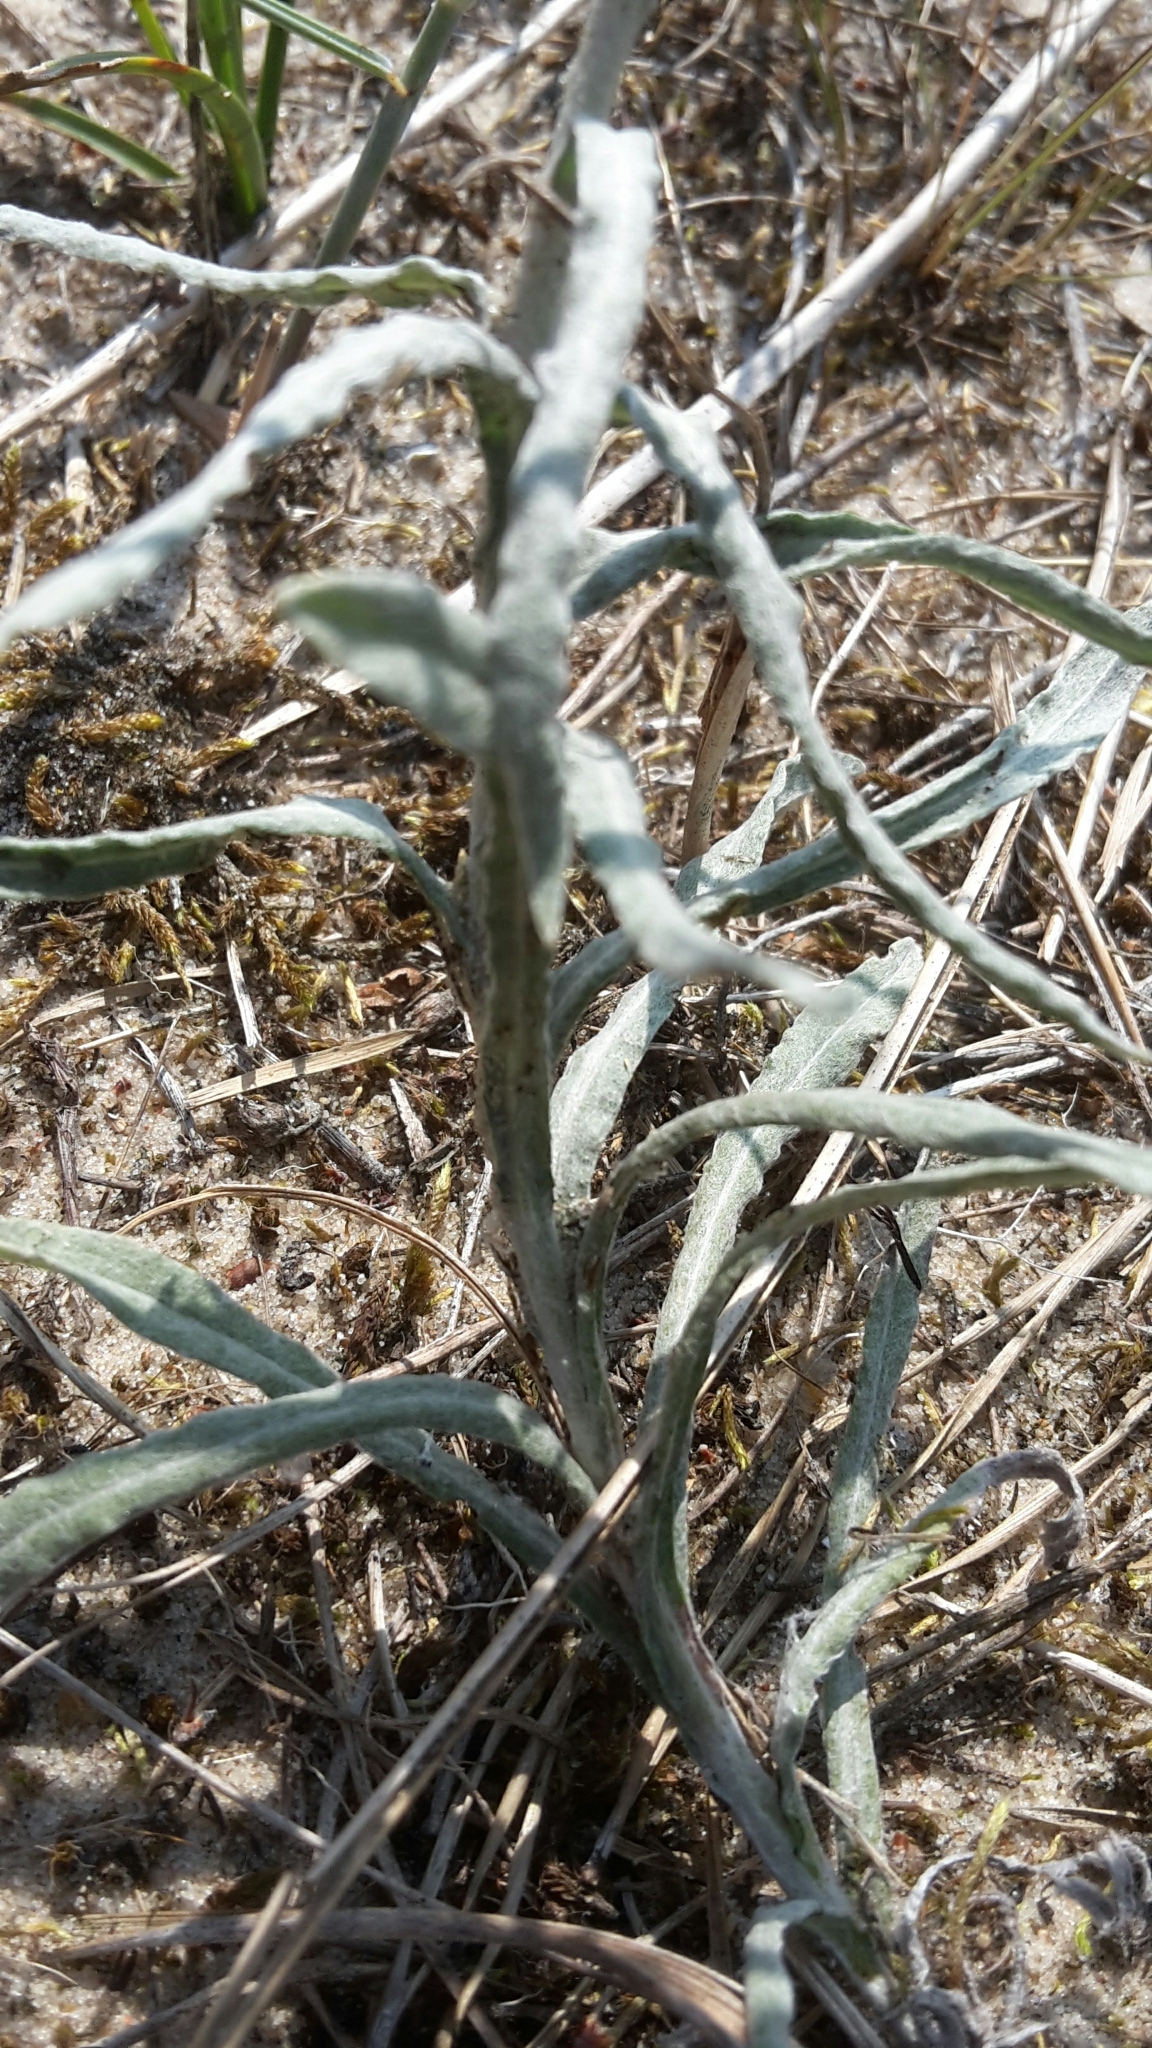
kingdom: Plantae
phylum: Tracheophyta
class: Magnoliopsida
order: Asterales
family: Asteraceae
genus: Helichrysum
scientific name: Helichrysum arenarium
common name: Strawflower
